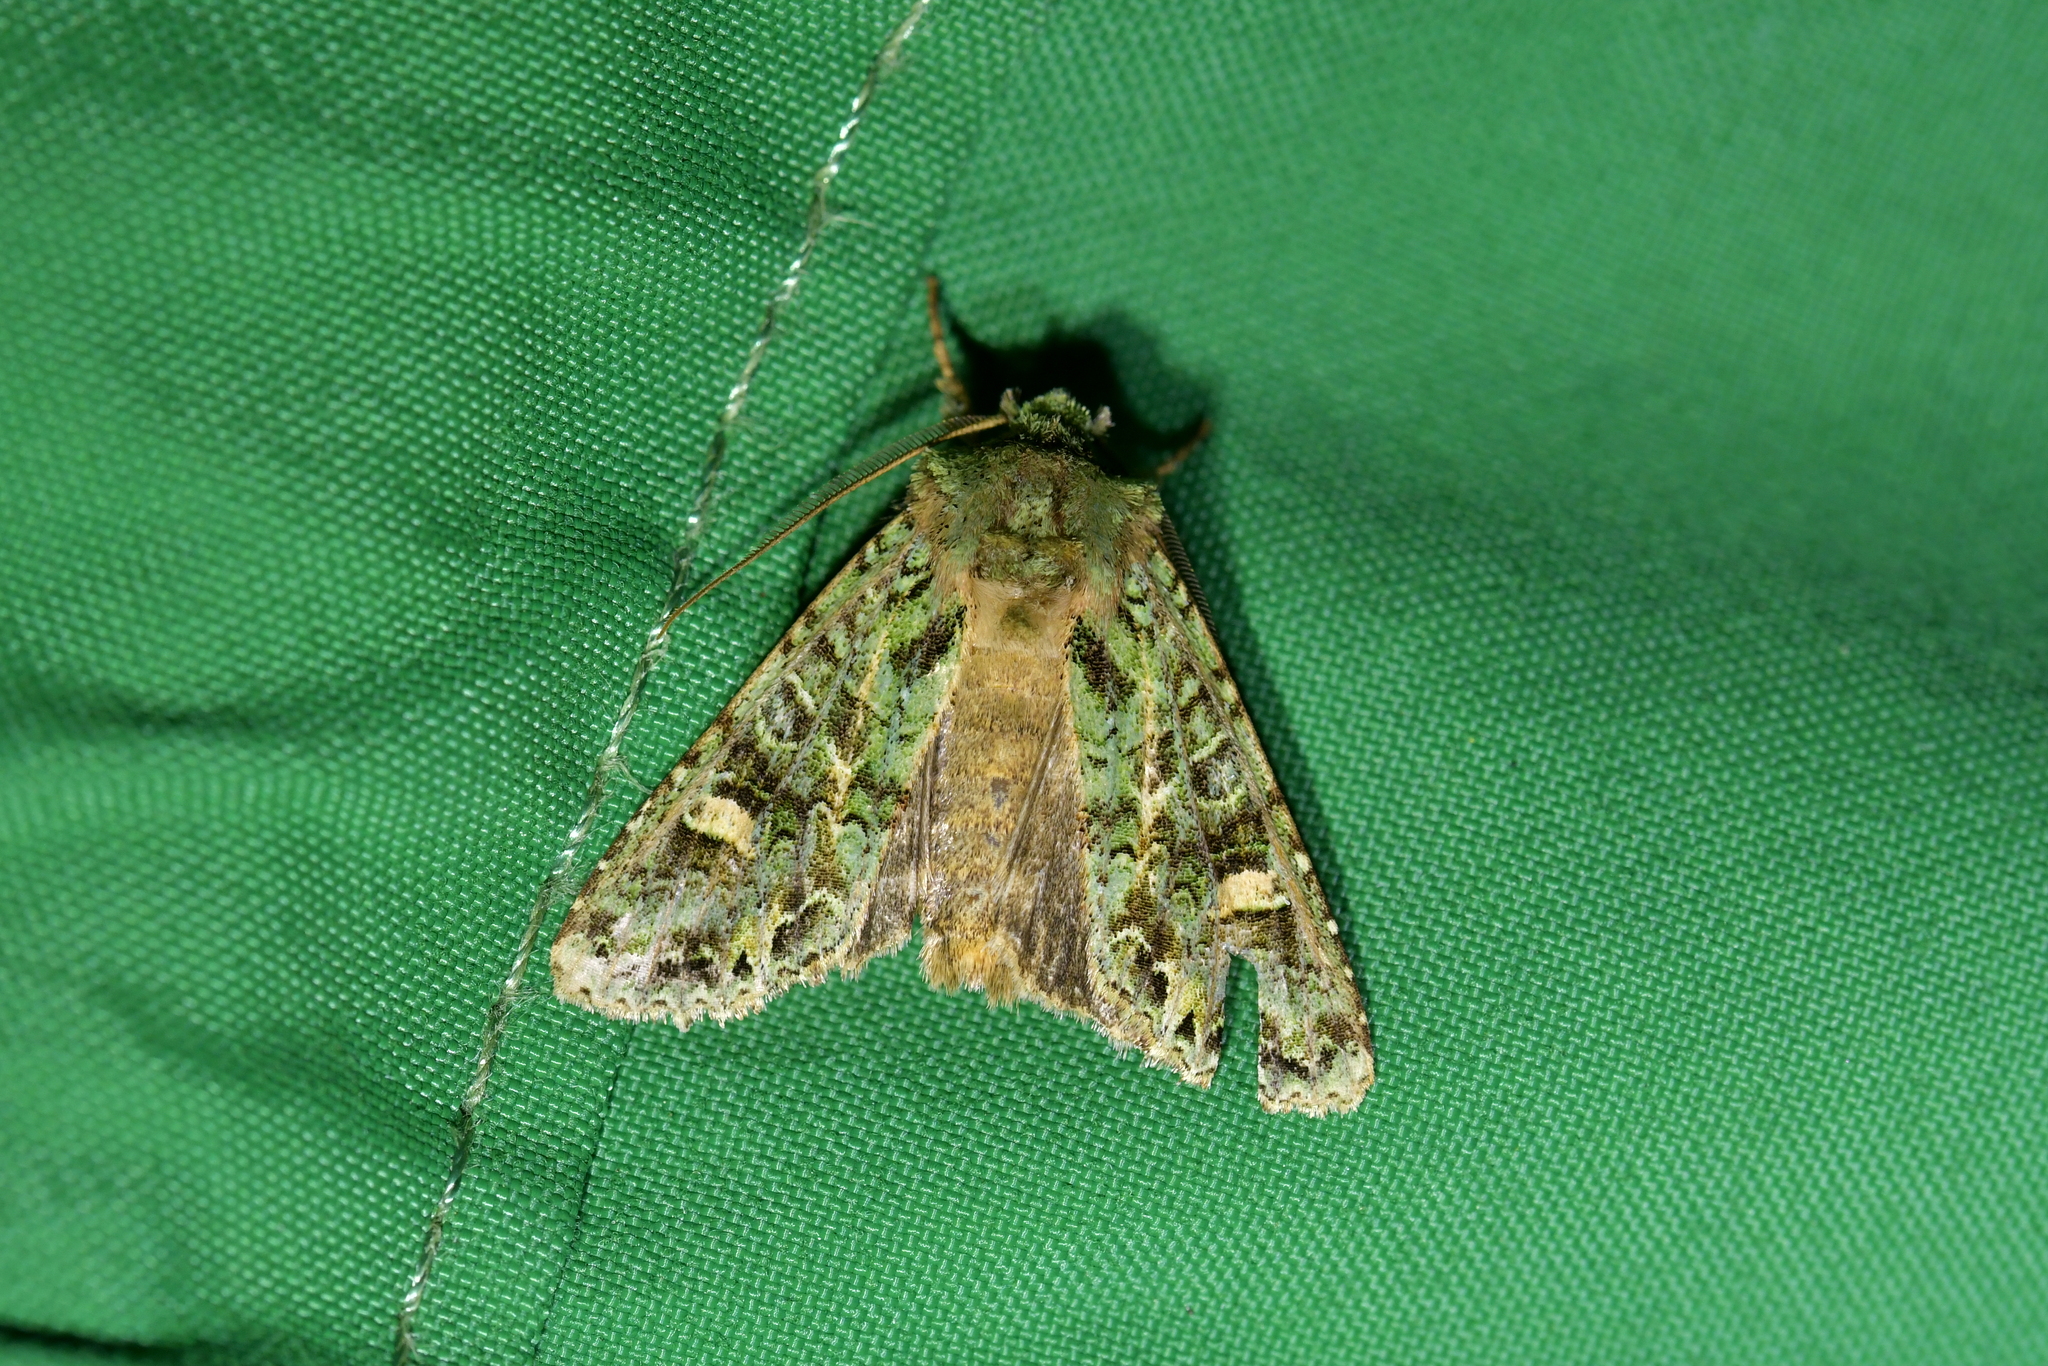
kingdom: Animalia
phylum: Arthropoda
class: Insecta
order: Lepidoptera
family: Noctuidae
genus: Ichneutica
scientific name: Ichneutica
